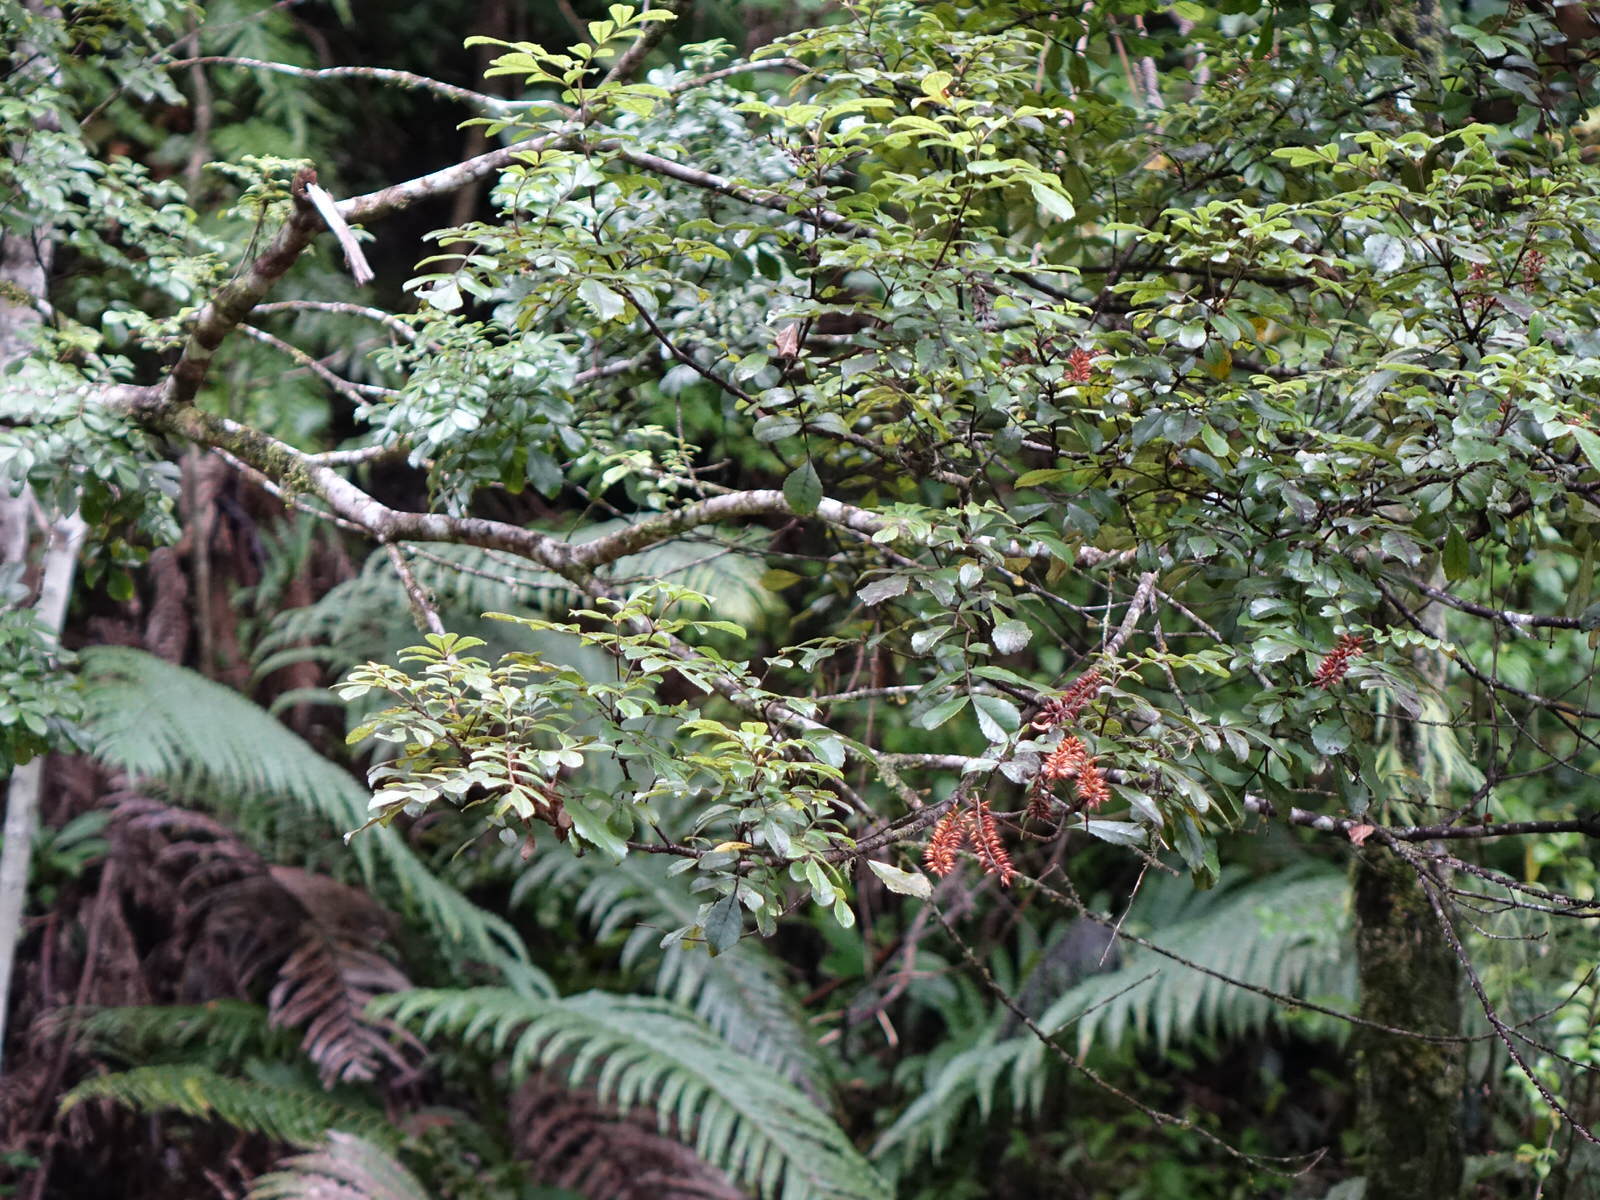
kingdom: Plantae
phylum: Tracheophyta
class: Magnoliopsida
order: Oxalidales
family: Cunoniaceae
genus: Pterophylla
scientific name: Pterophylla sylvicola
